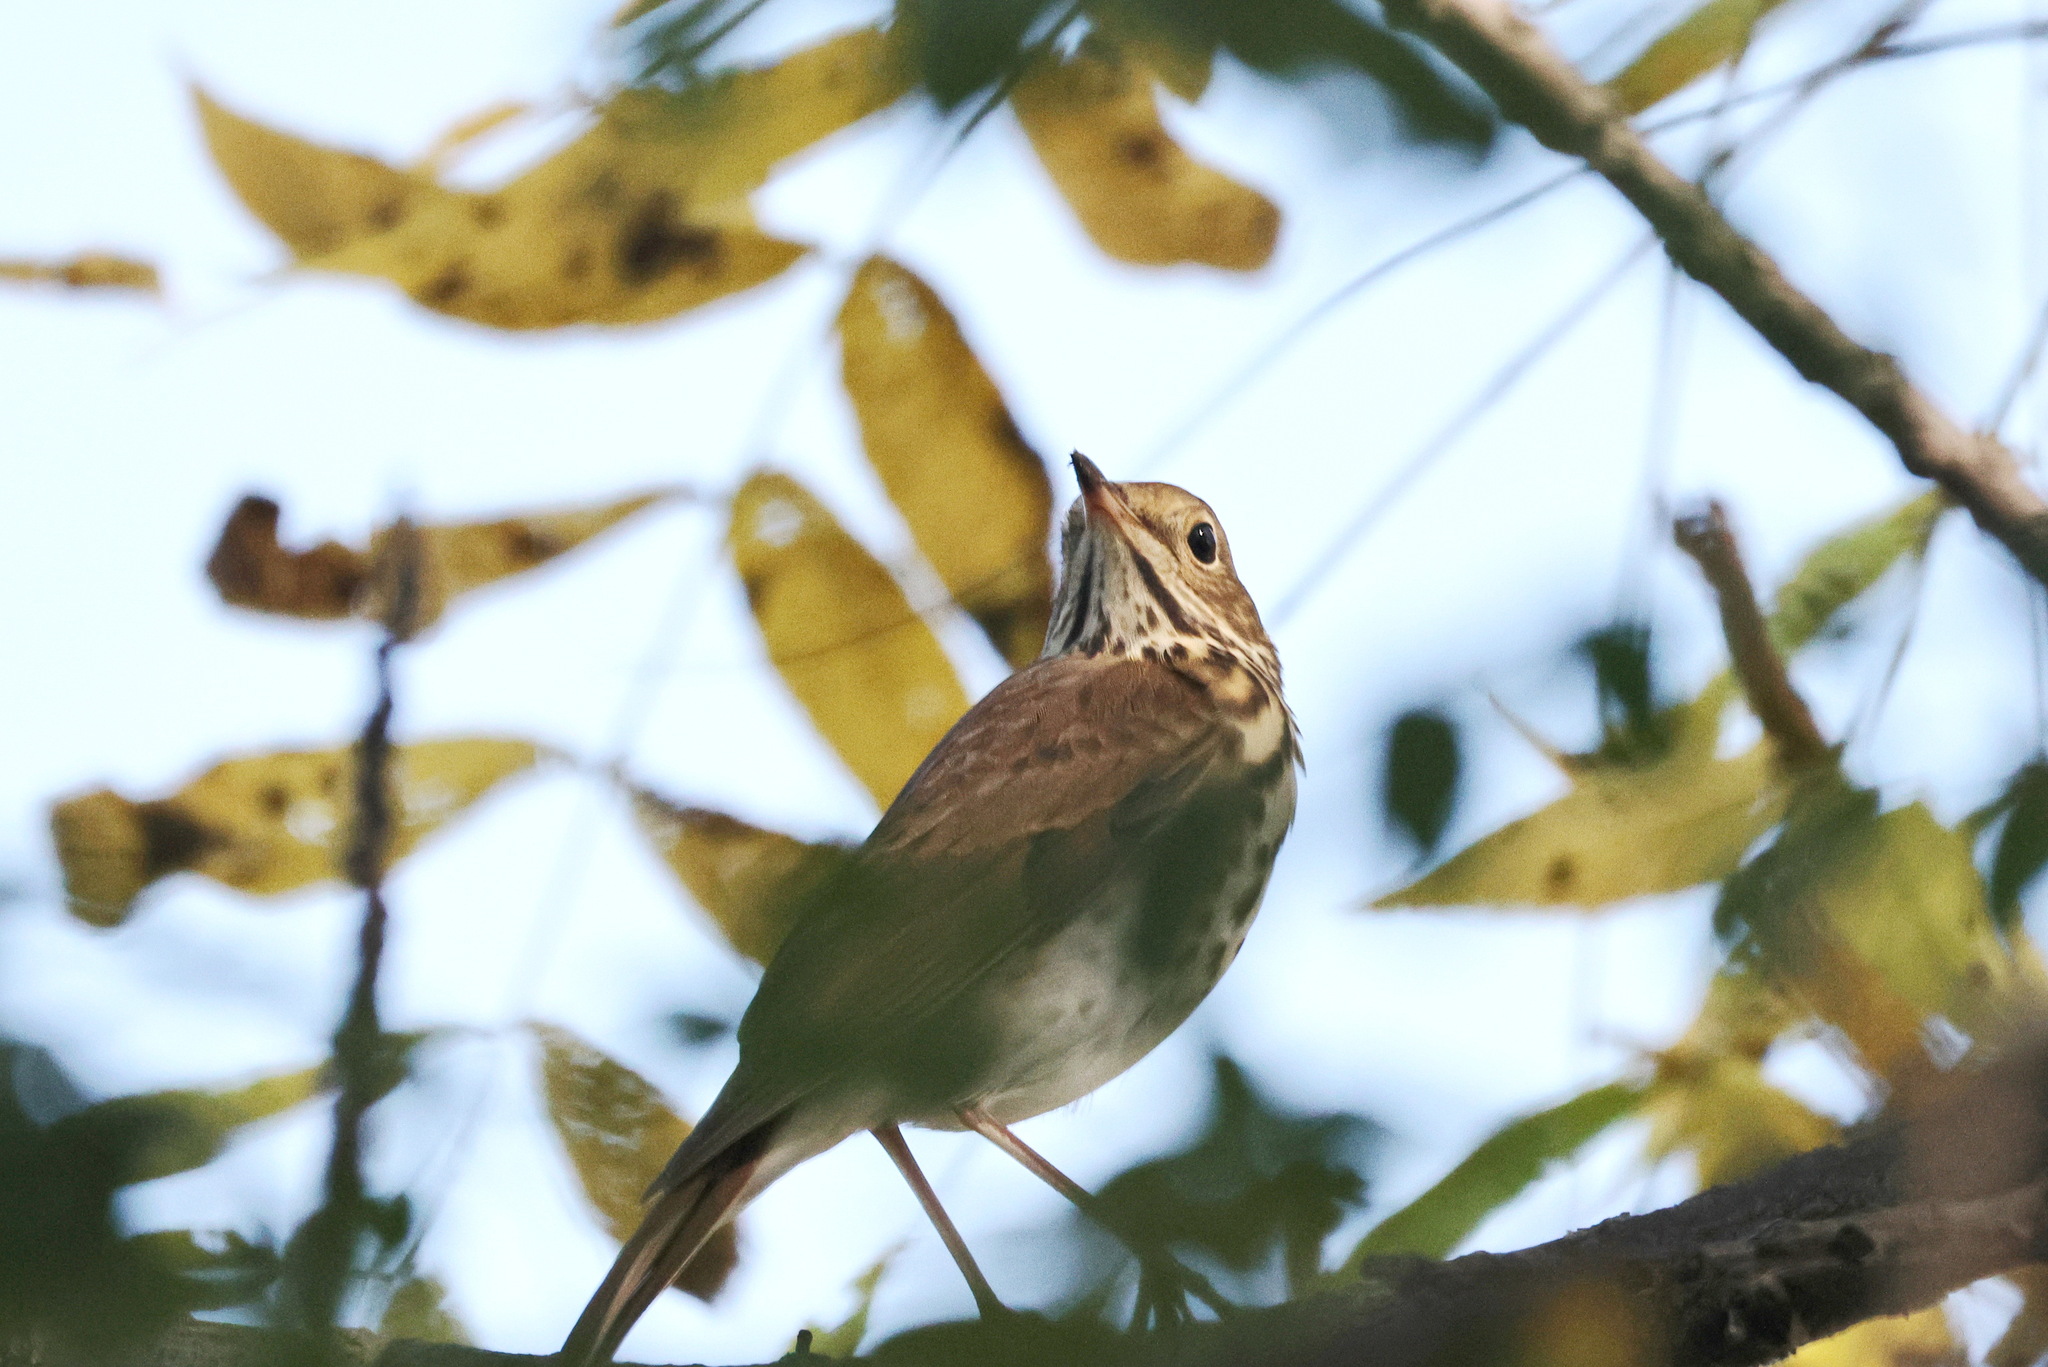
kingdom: Animalia
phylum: Chordata
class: Aves
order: Passeriformes
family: Turdidae
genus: Catharus
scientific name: Catharus guttatus
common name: Hermit thrush
